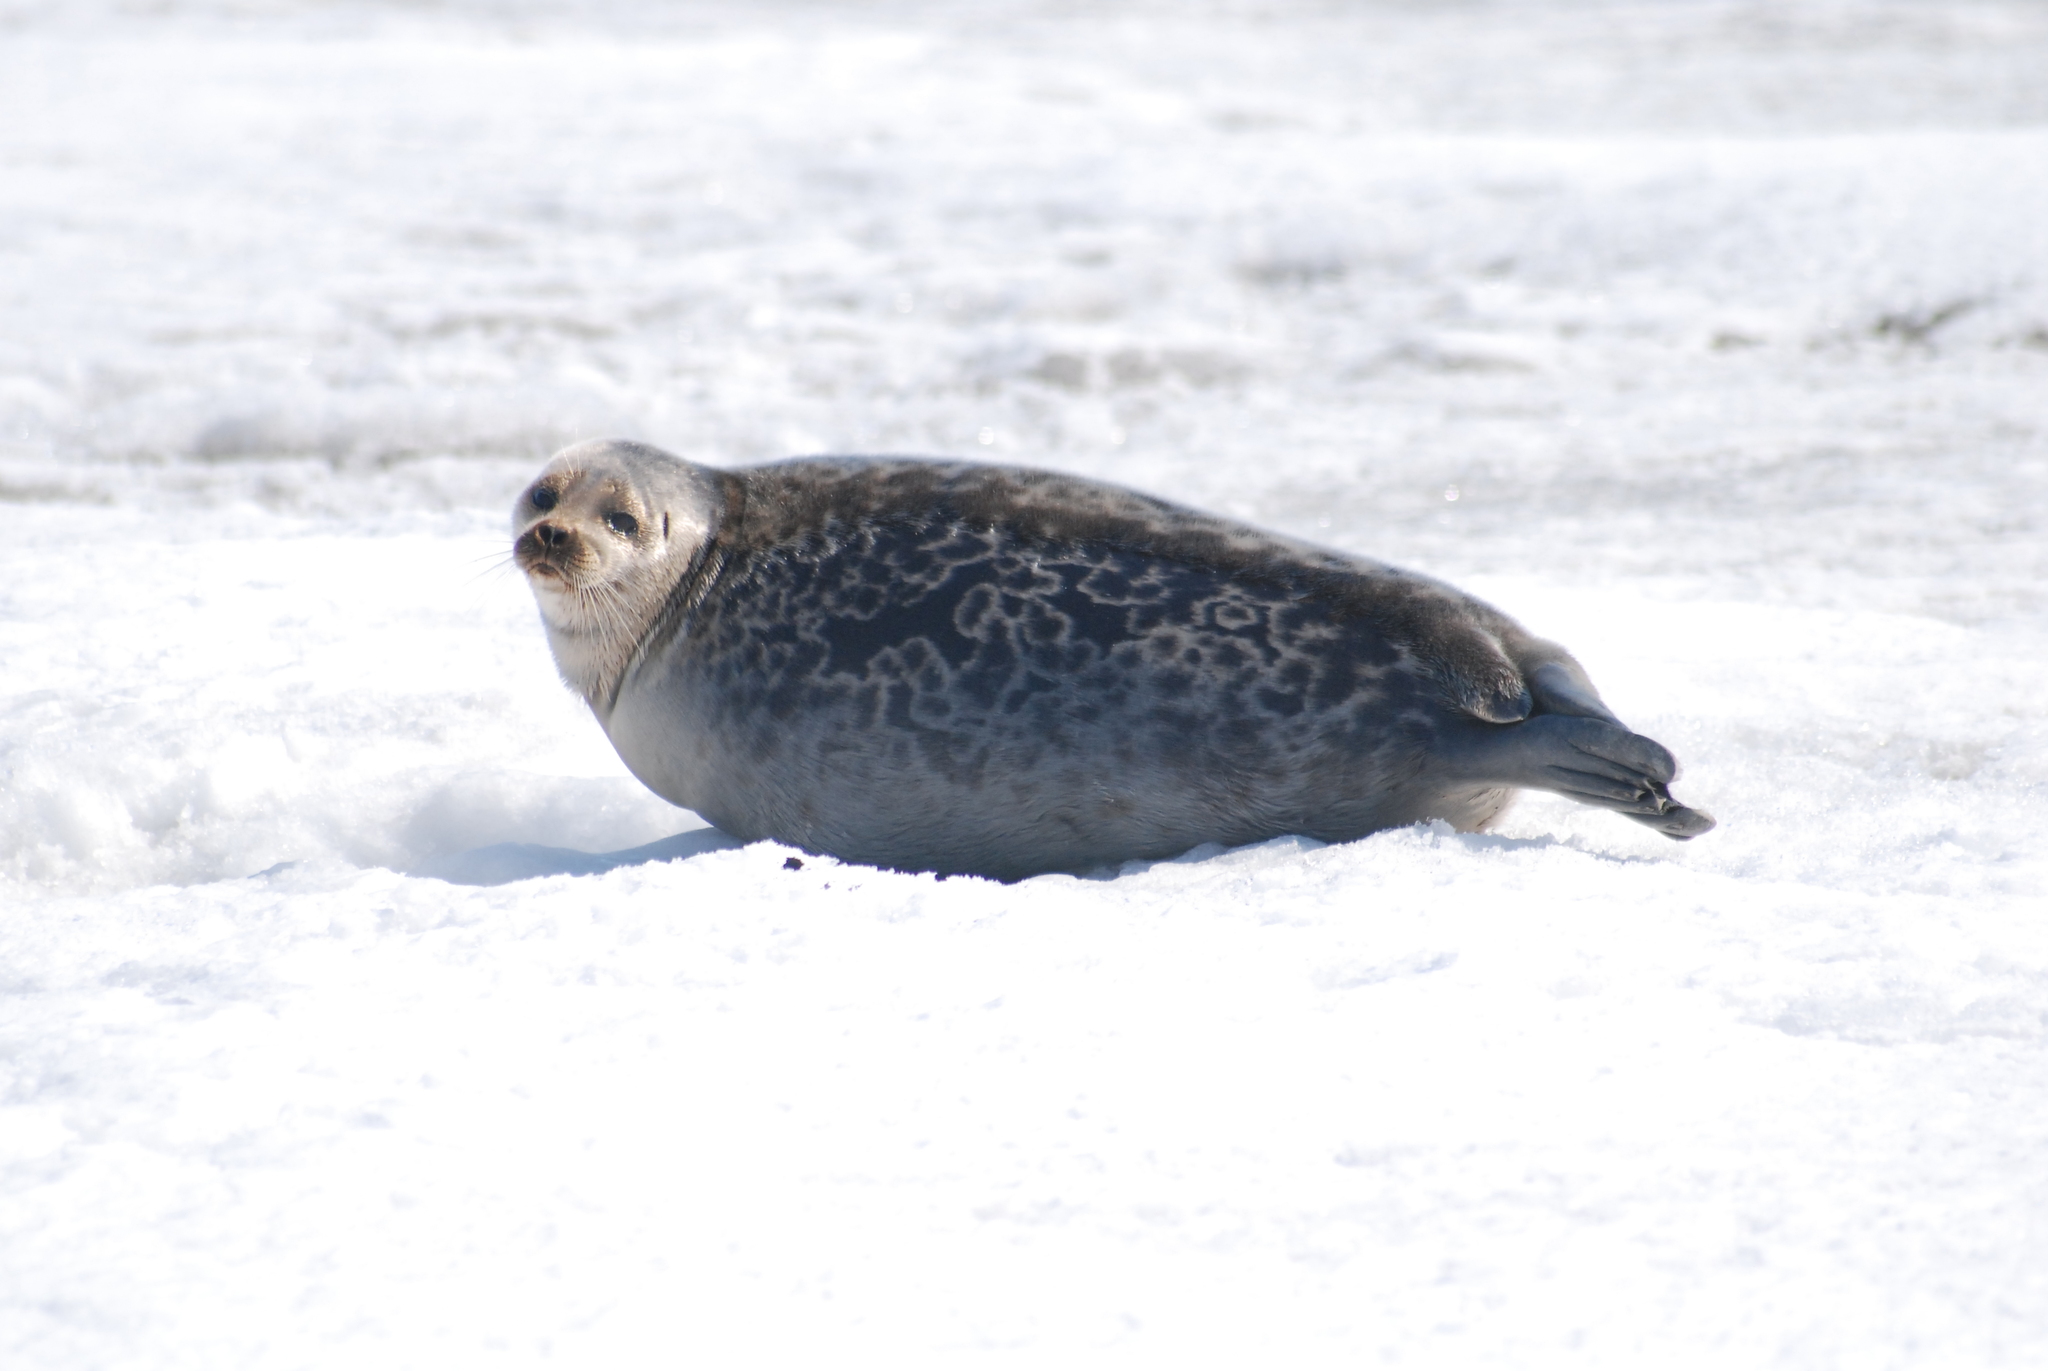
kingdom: Animalia
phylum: Chordata
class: Mammalia
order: Carnivora
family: Phocidae
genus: Pusa
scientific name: Pusa hispida
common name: Ringed seal
